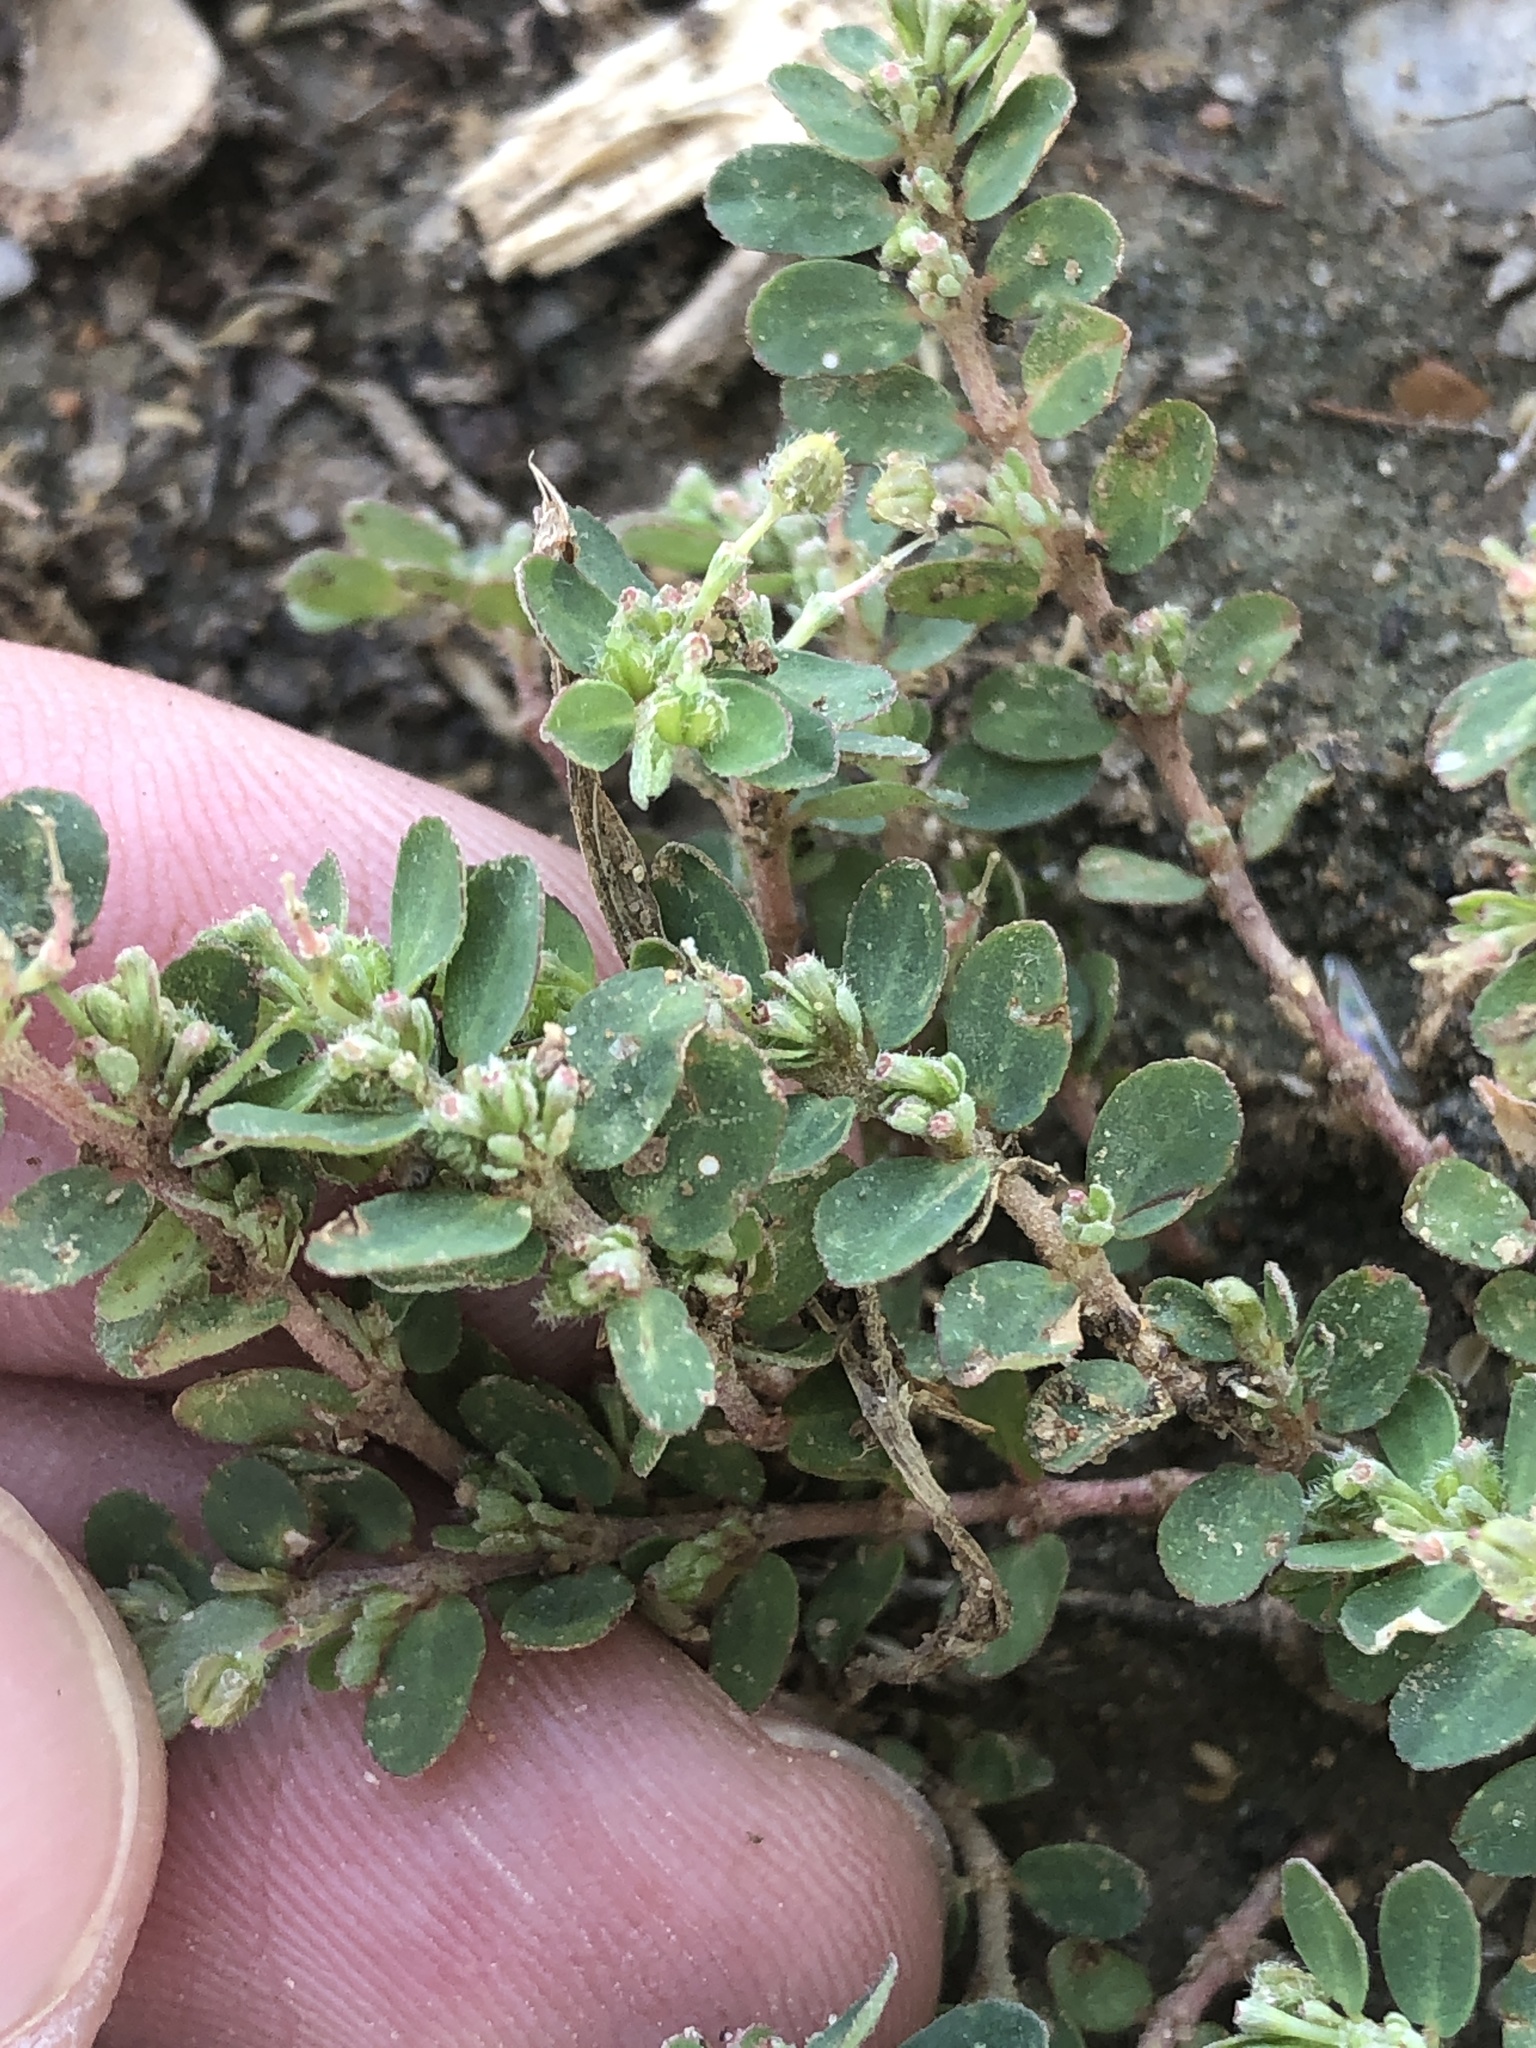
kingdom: Plantae
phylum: Tracheophyta
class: Magnoliopsida
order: Malpighiales
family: Euphorbiaceae
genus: Euphorbia
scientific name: Euphorbia prostrata
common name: Prostrate sandmat
